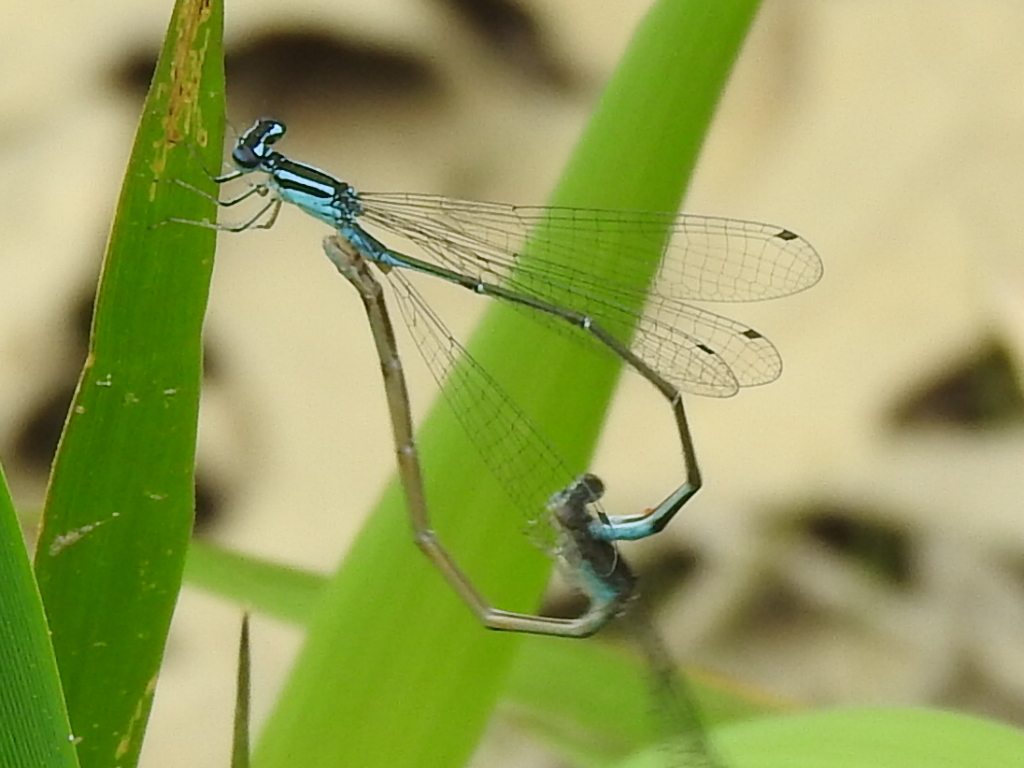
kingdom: Animalia
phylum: Arthropoda
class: Insecta
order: Odonata
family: Coenagrionidae
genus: Enallagma
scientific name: Enallagma divagans
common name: Turquoise bluet
